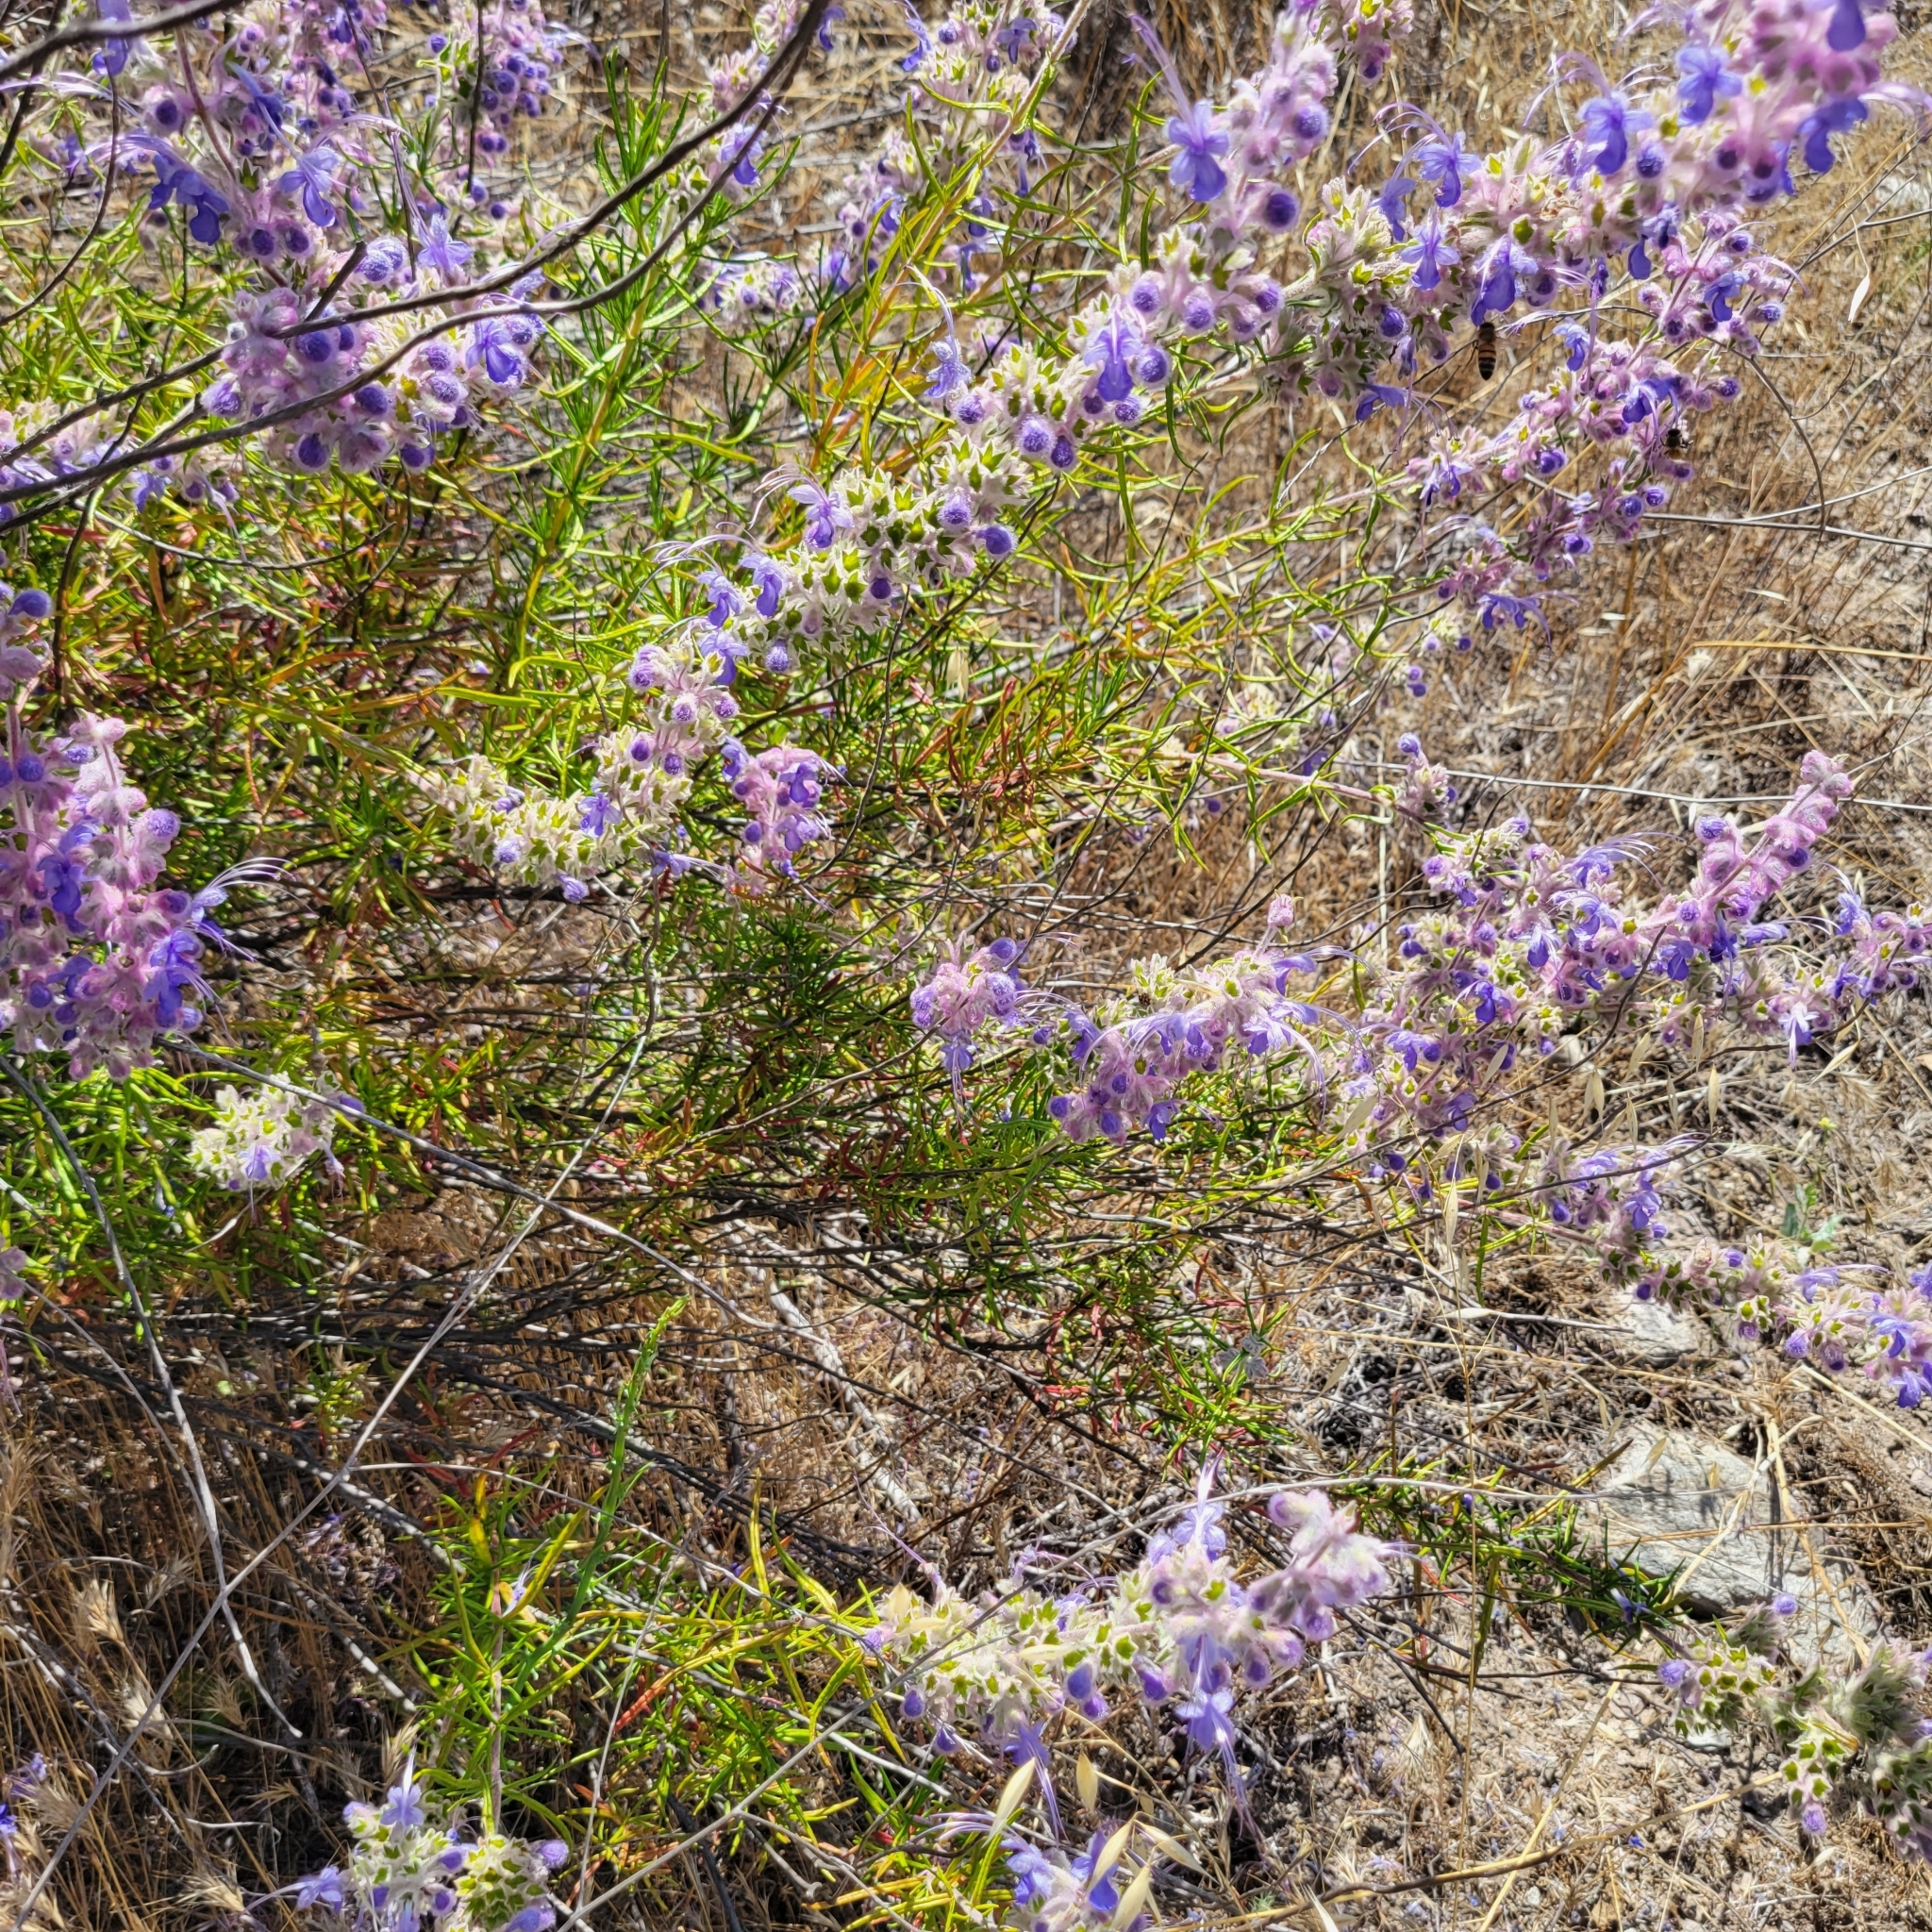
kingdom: Plantae
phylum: Tracheophyta
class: Magnoliopsida
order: Lamiales
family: Lamiaceae
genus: Trichostema
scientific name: Trichostema lanatum
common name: Woolly bluecurls
